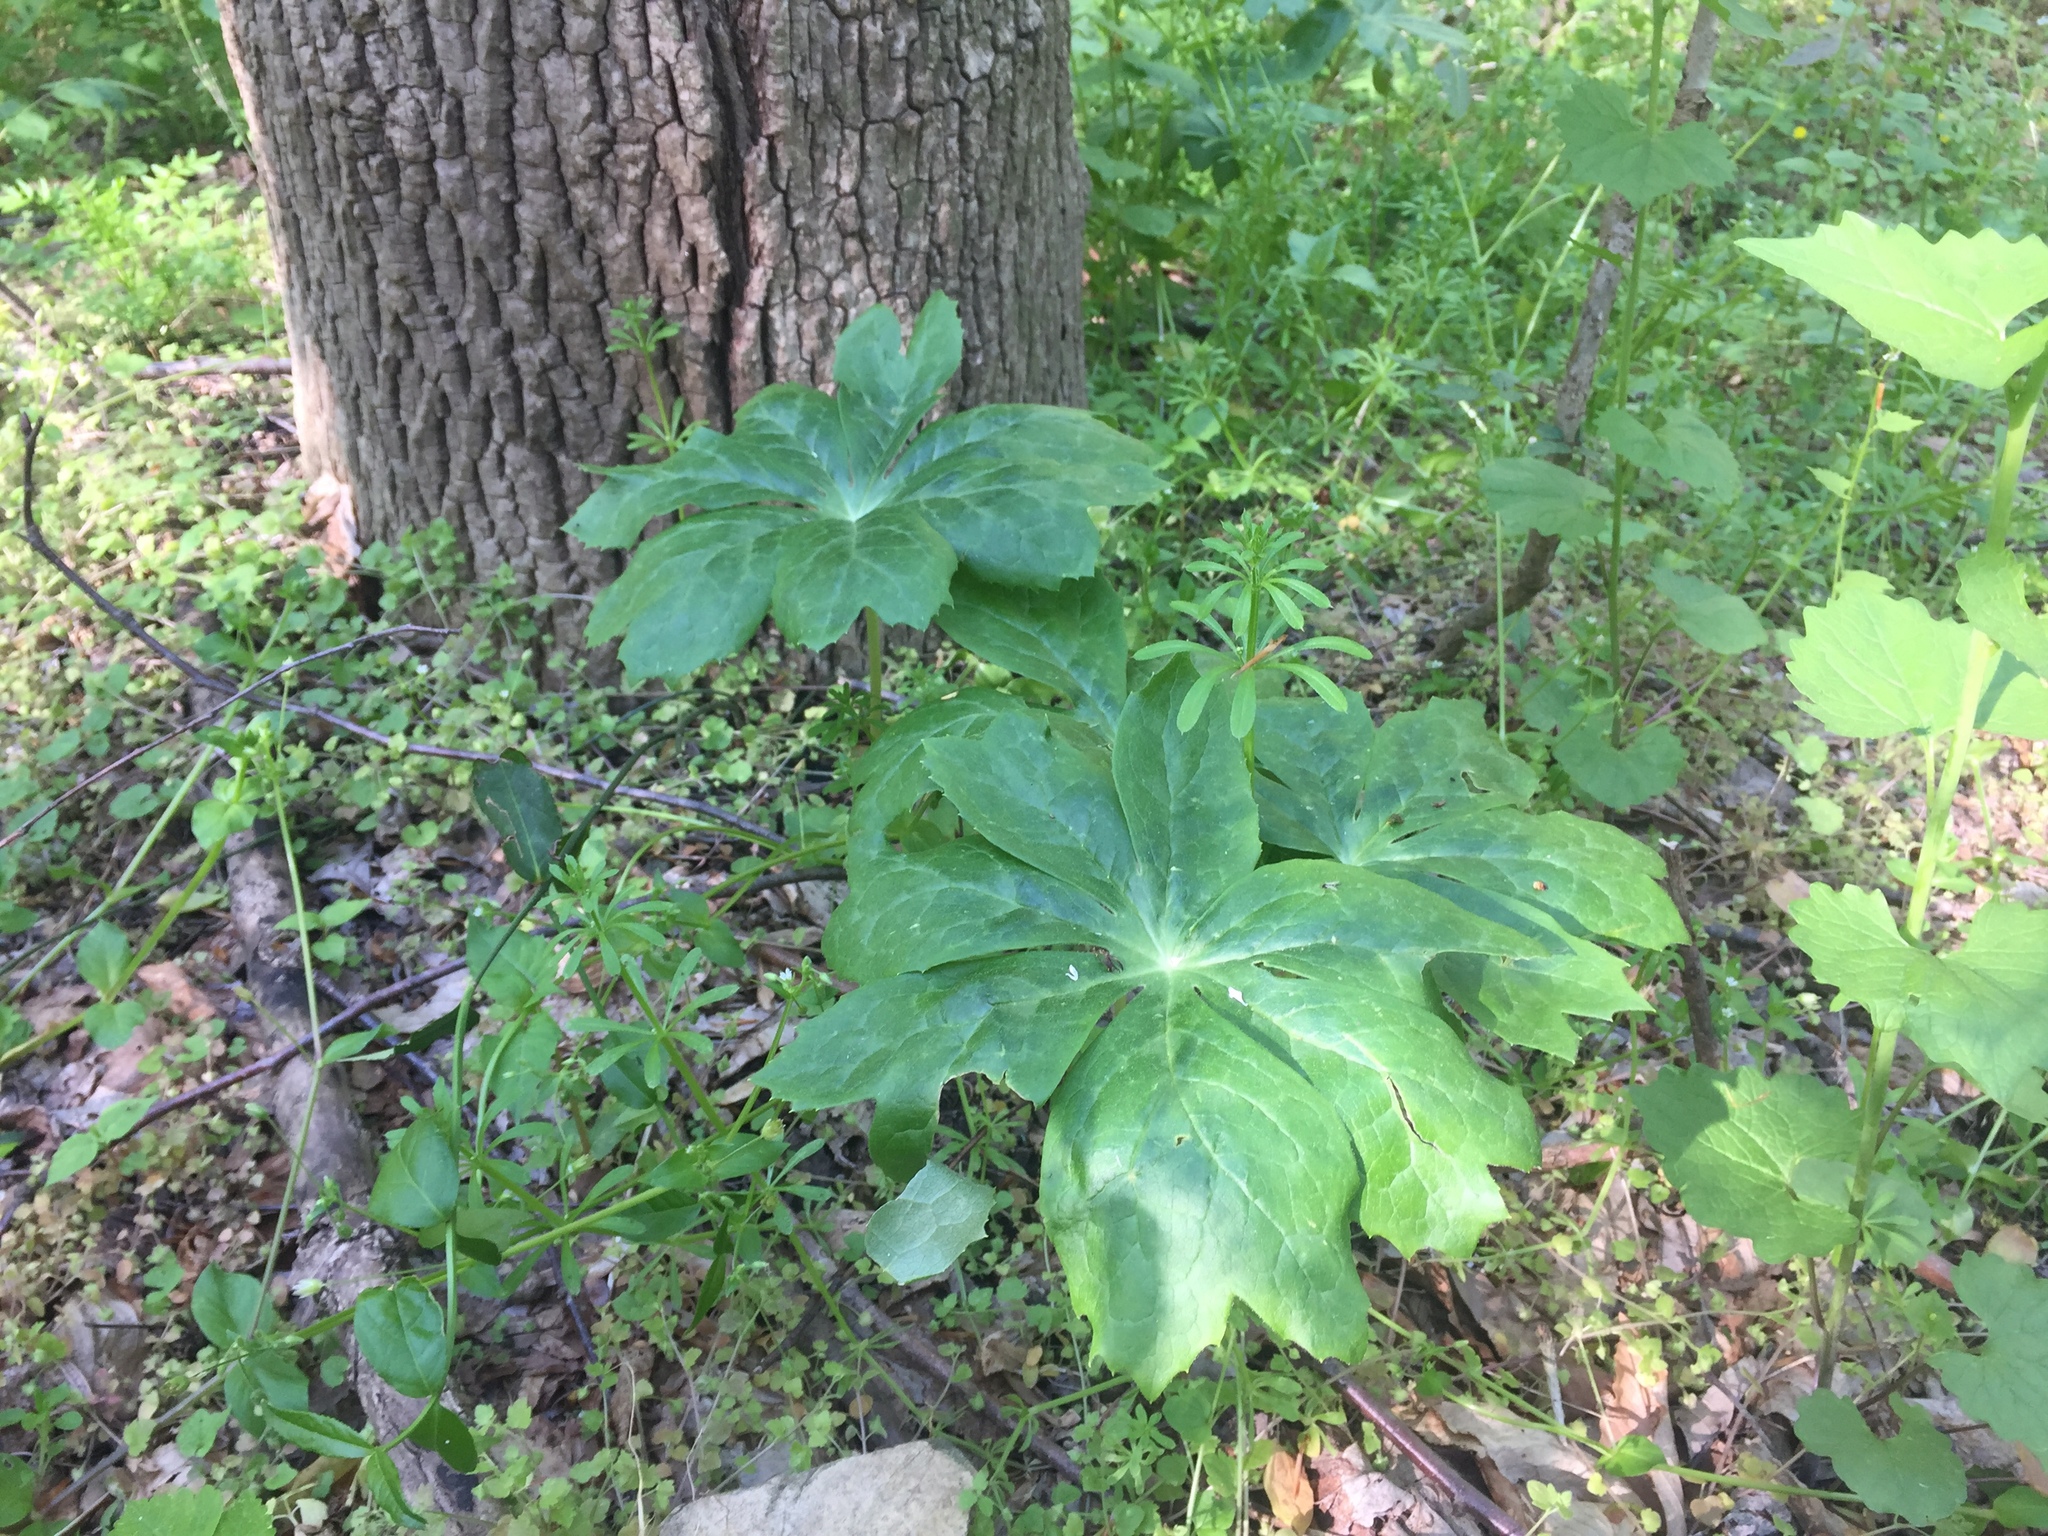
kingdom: Plantae
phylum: Tracheophyta
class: Magnoliopsida
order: Ranunculales
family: Berberidaceae
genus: Podophyllum
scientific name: Podophyllum peltatum
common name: Wild mandrake
